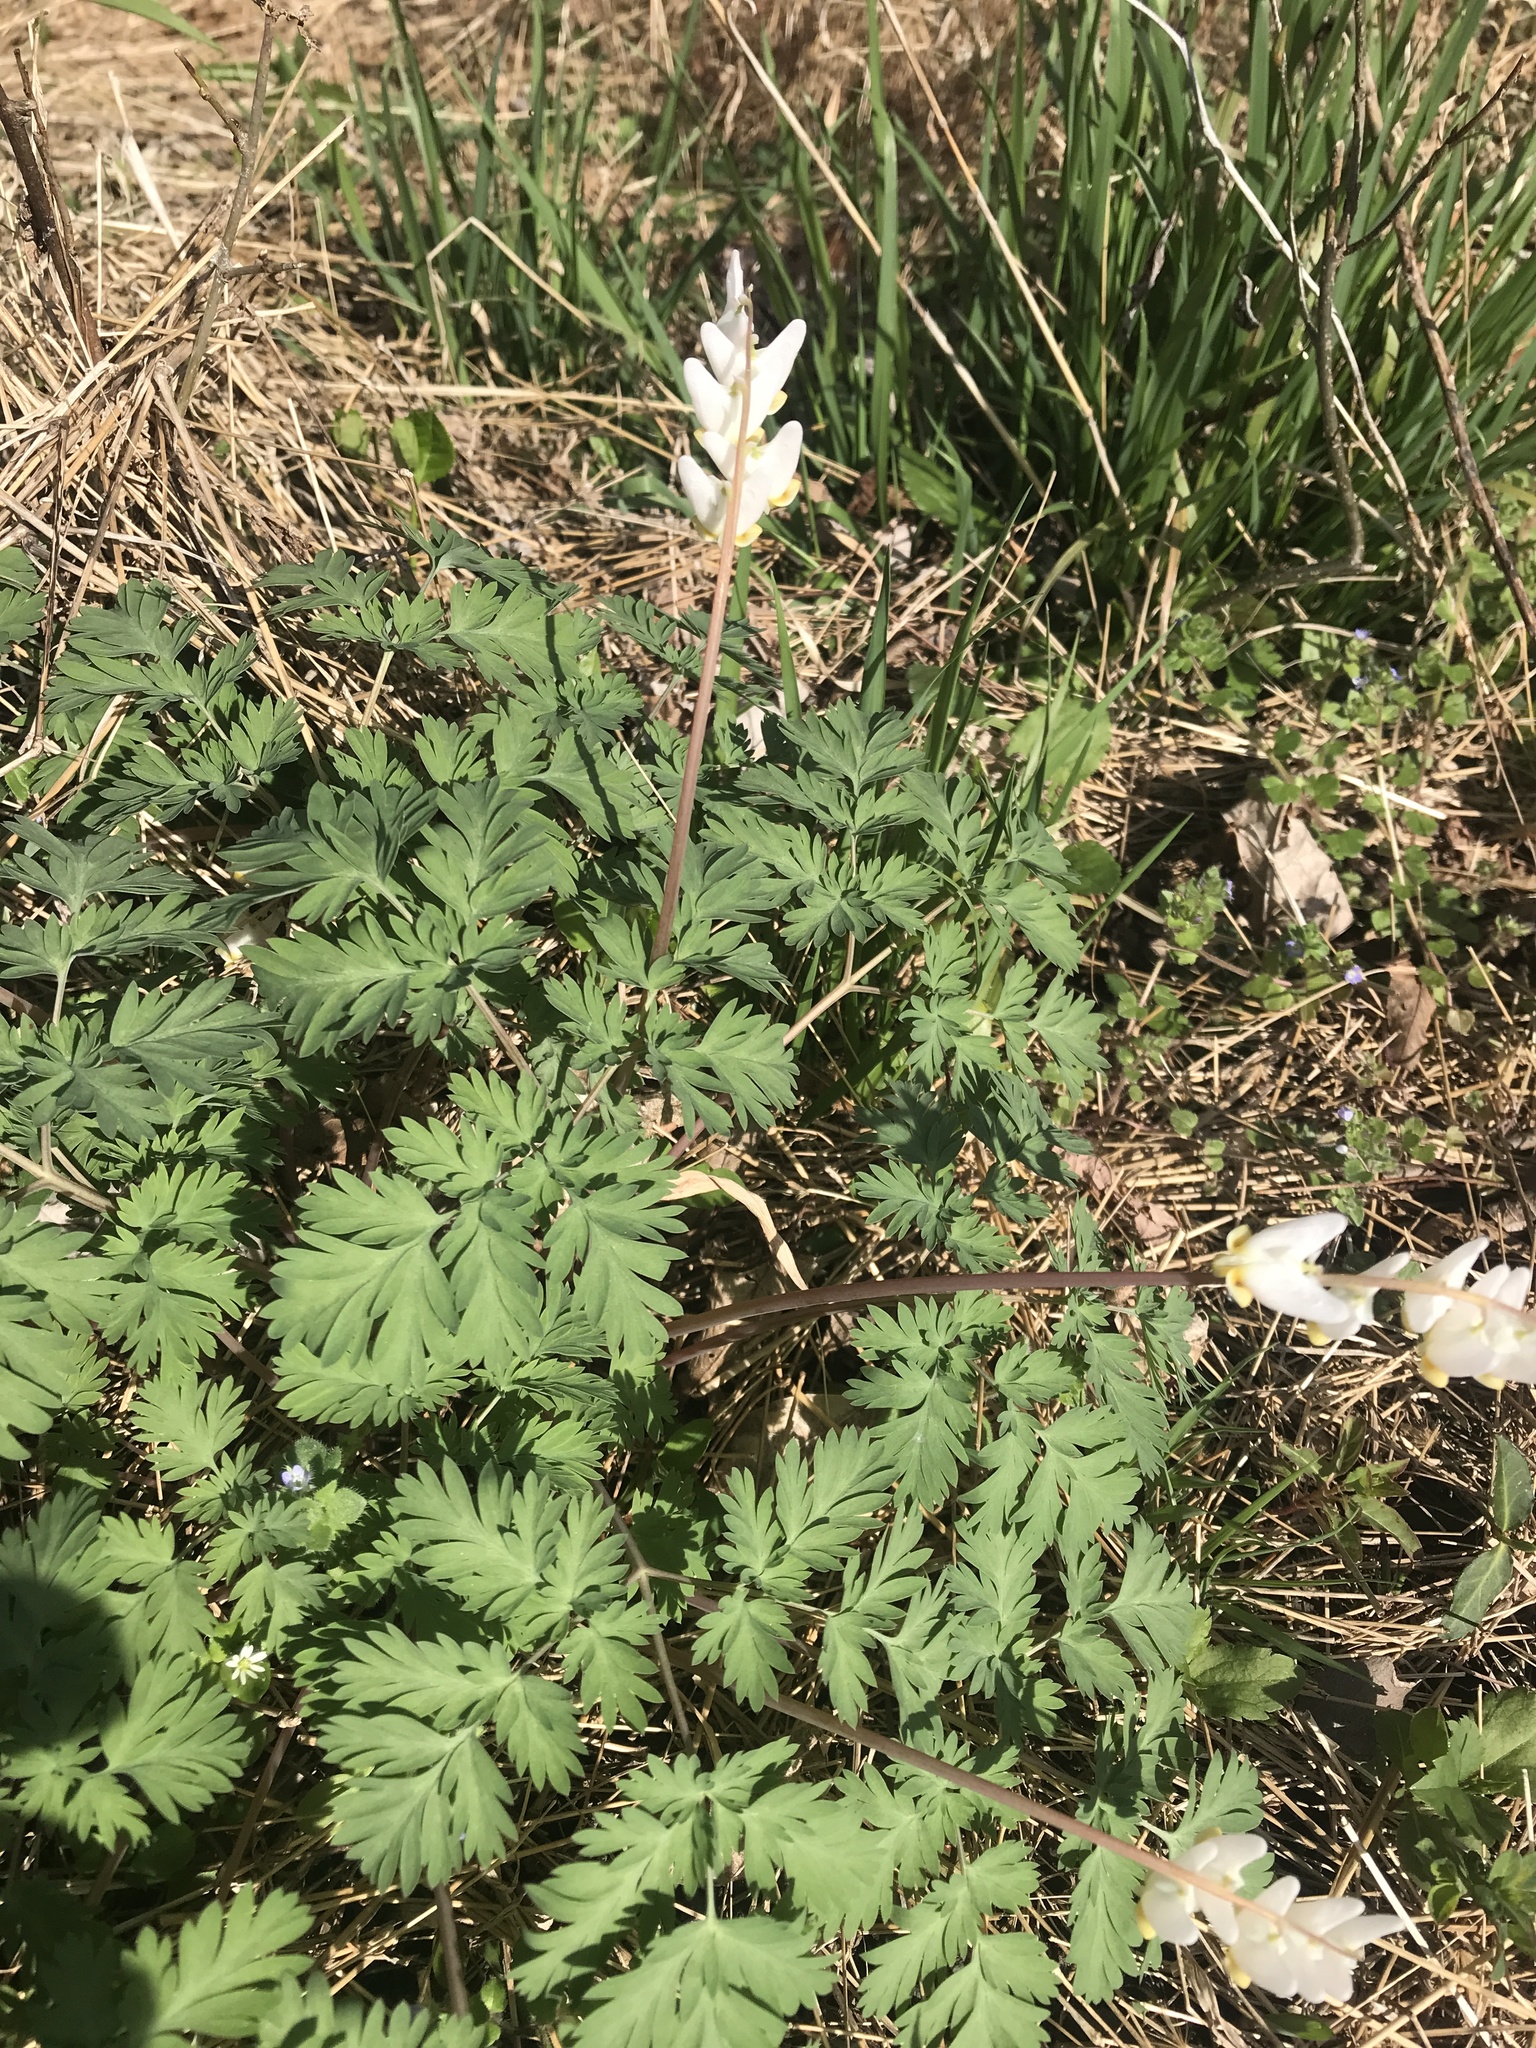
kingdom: Plantae
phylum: Tracheophyta
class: Magnoliopsida
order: Ranunculales
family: Papaveraceae
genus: Dicentra
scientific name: Dicentra cucullaria
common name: Dutchman's breeches
